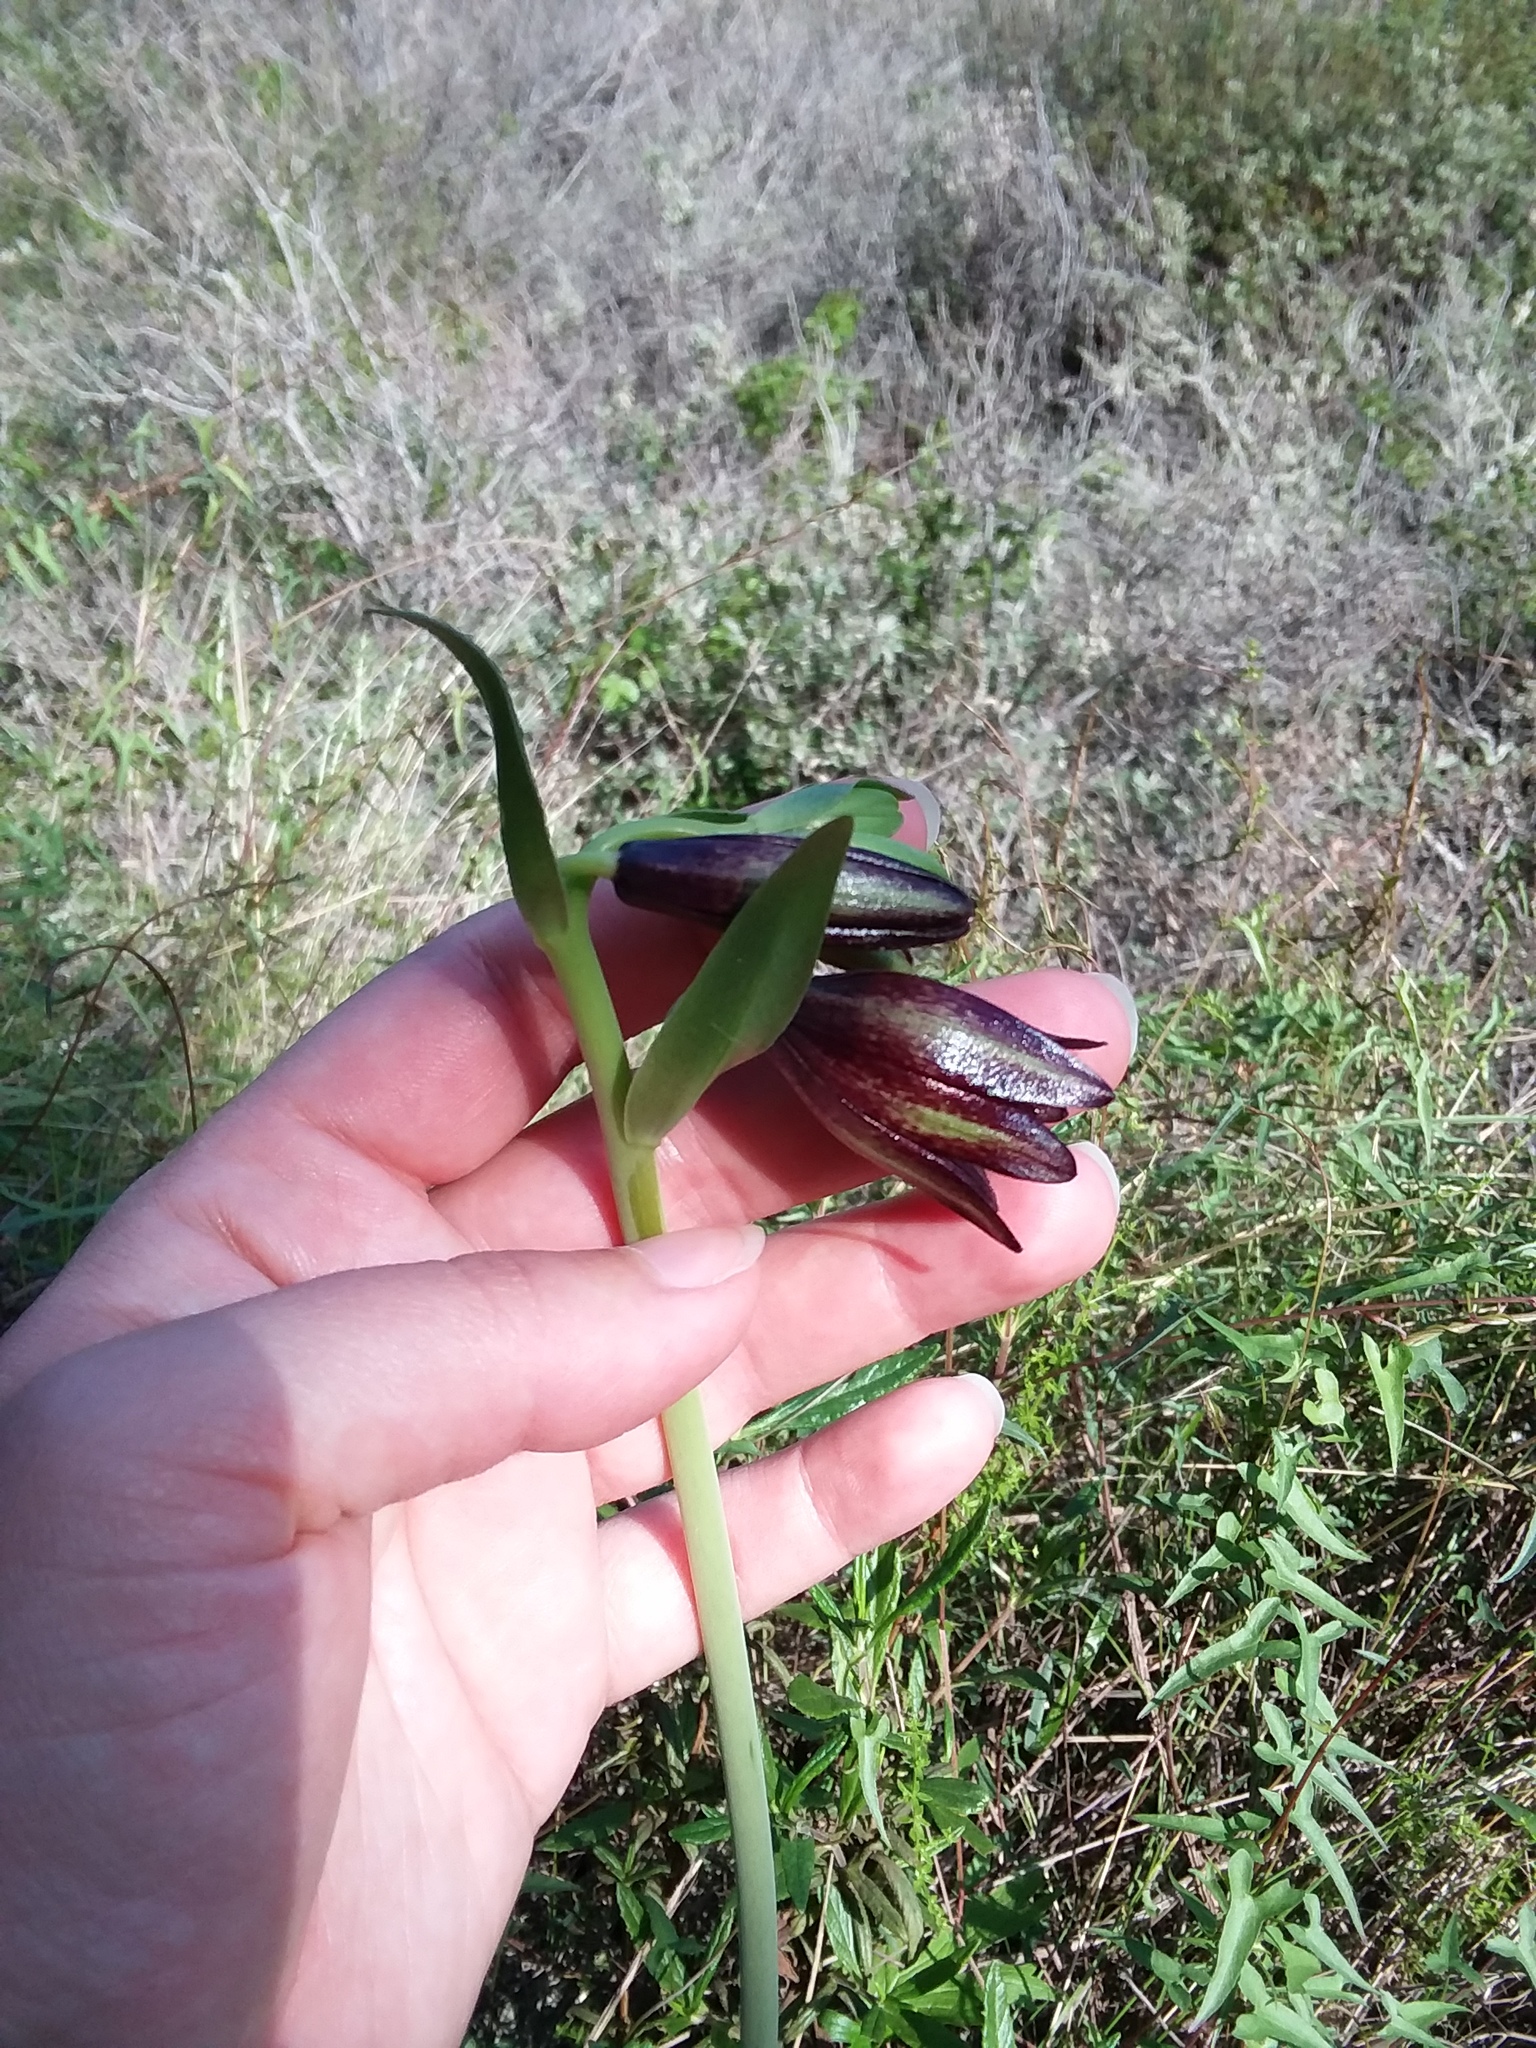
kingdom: Plantae
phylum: Tracheophyta
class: Liliopsida
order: Liliales
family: Liliaceae
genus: Fritillaria
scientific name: Fritillaria biflora
